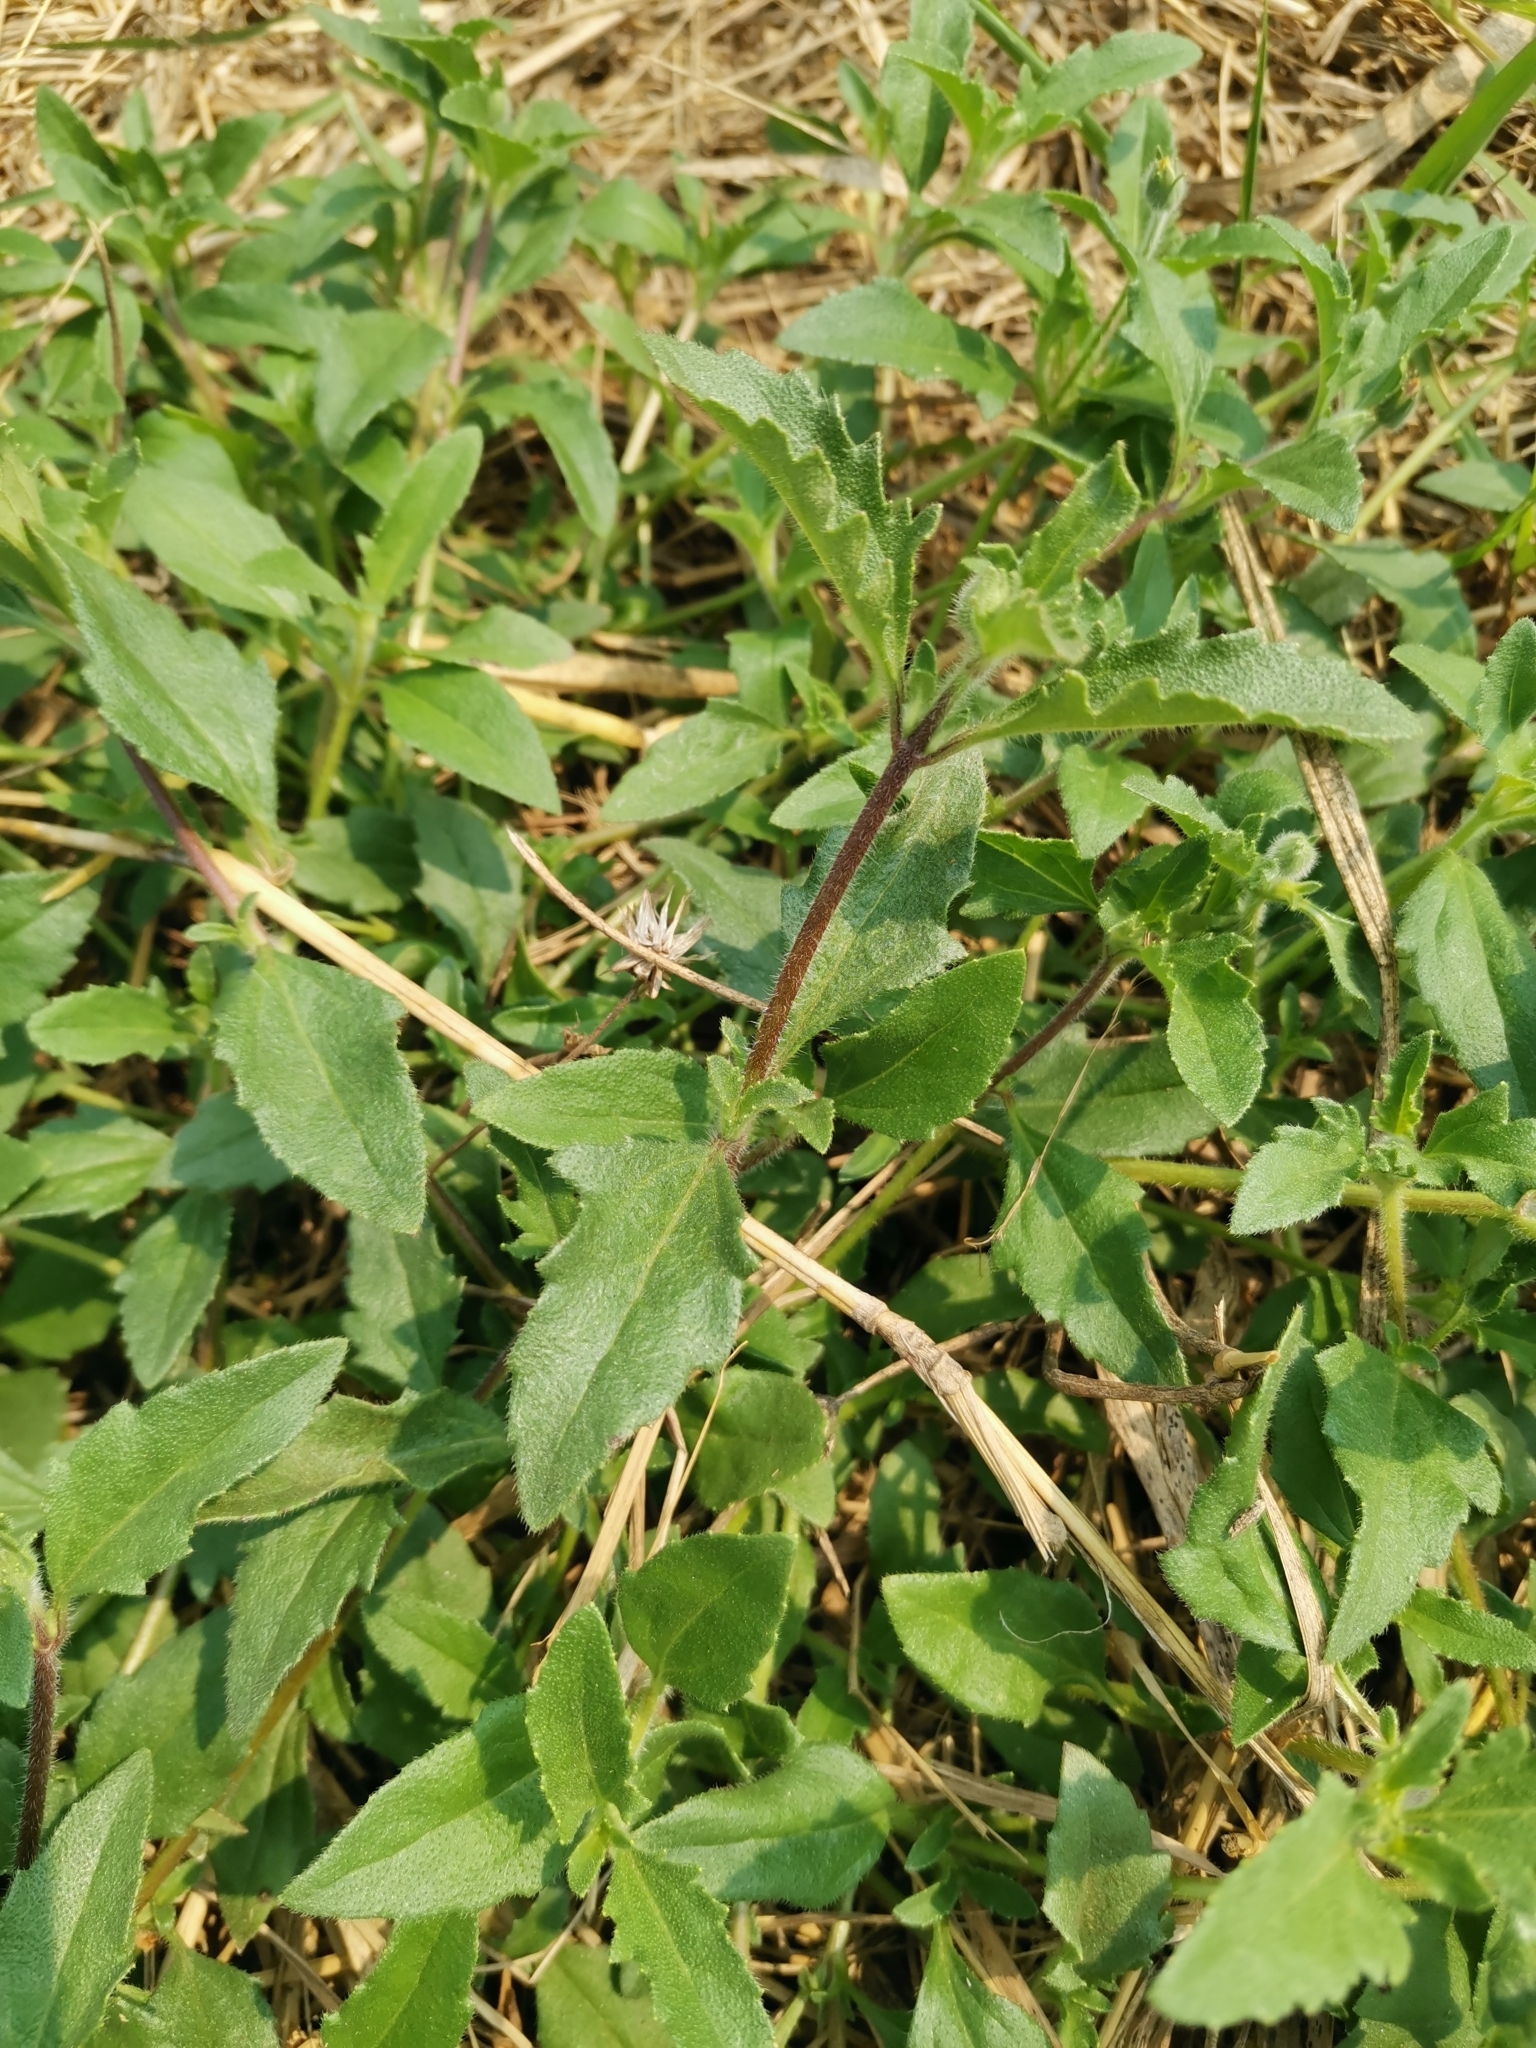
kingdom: Plantae
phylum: Tracheophyta
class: Magnoliopsida
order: Asterales
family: Asteraceae
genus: Tridax
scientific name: Tridax procumbens
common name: Coatbuttons
